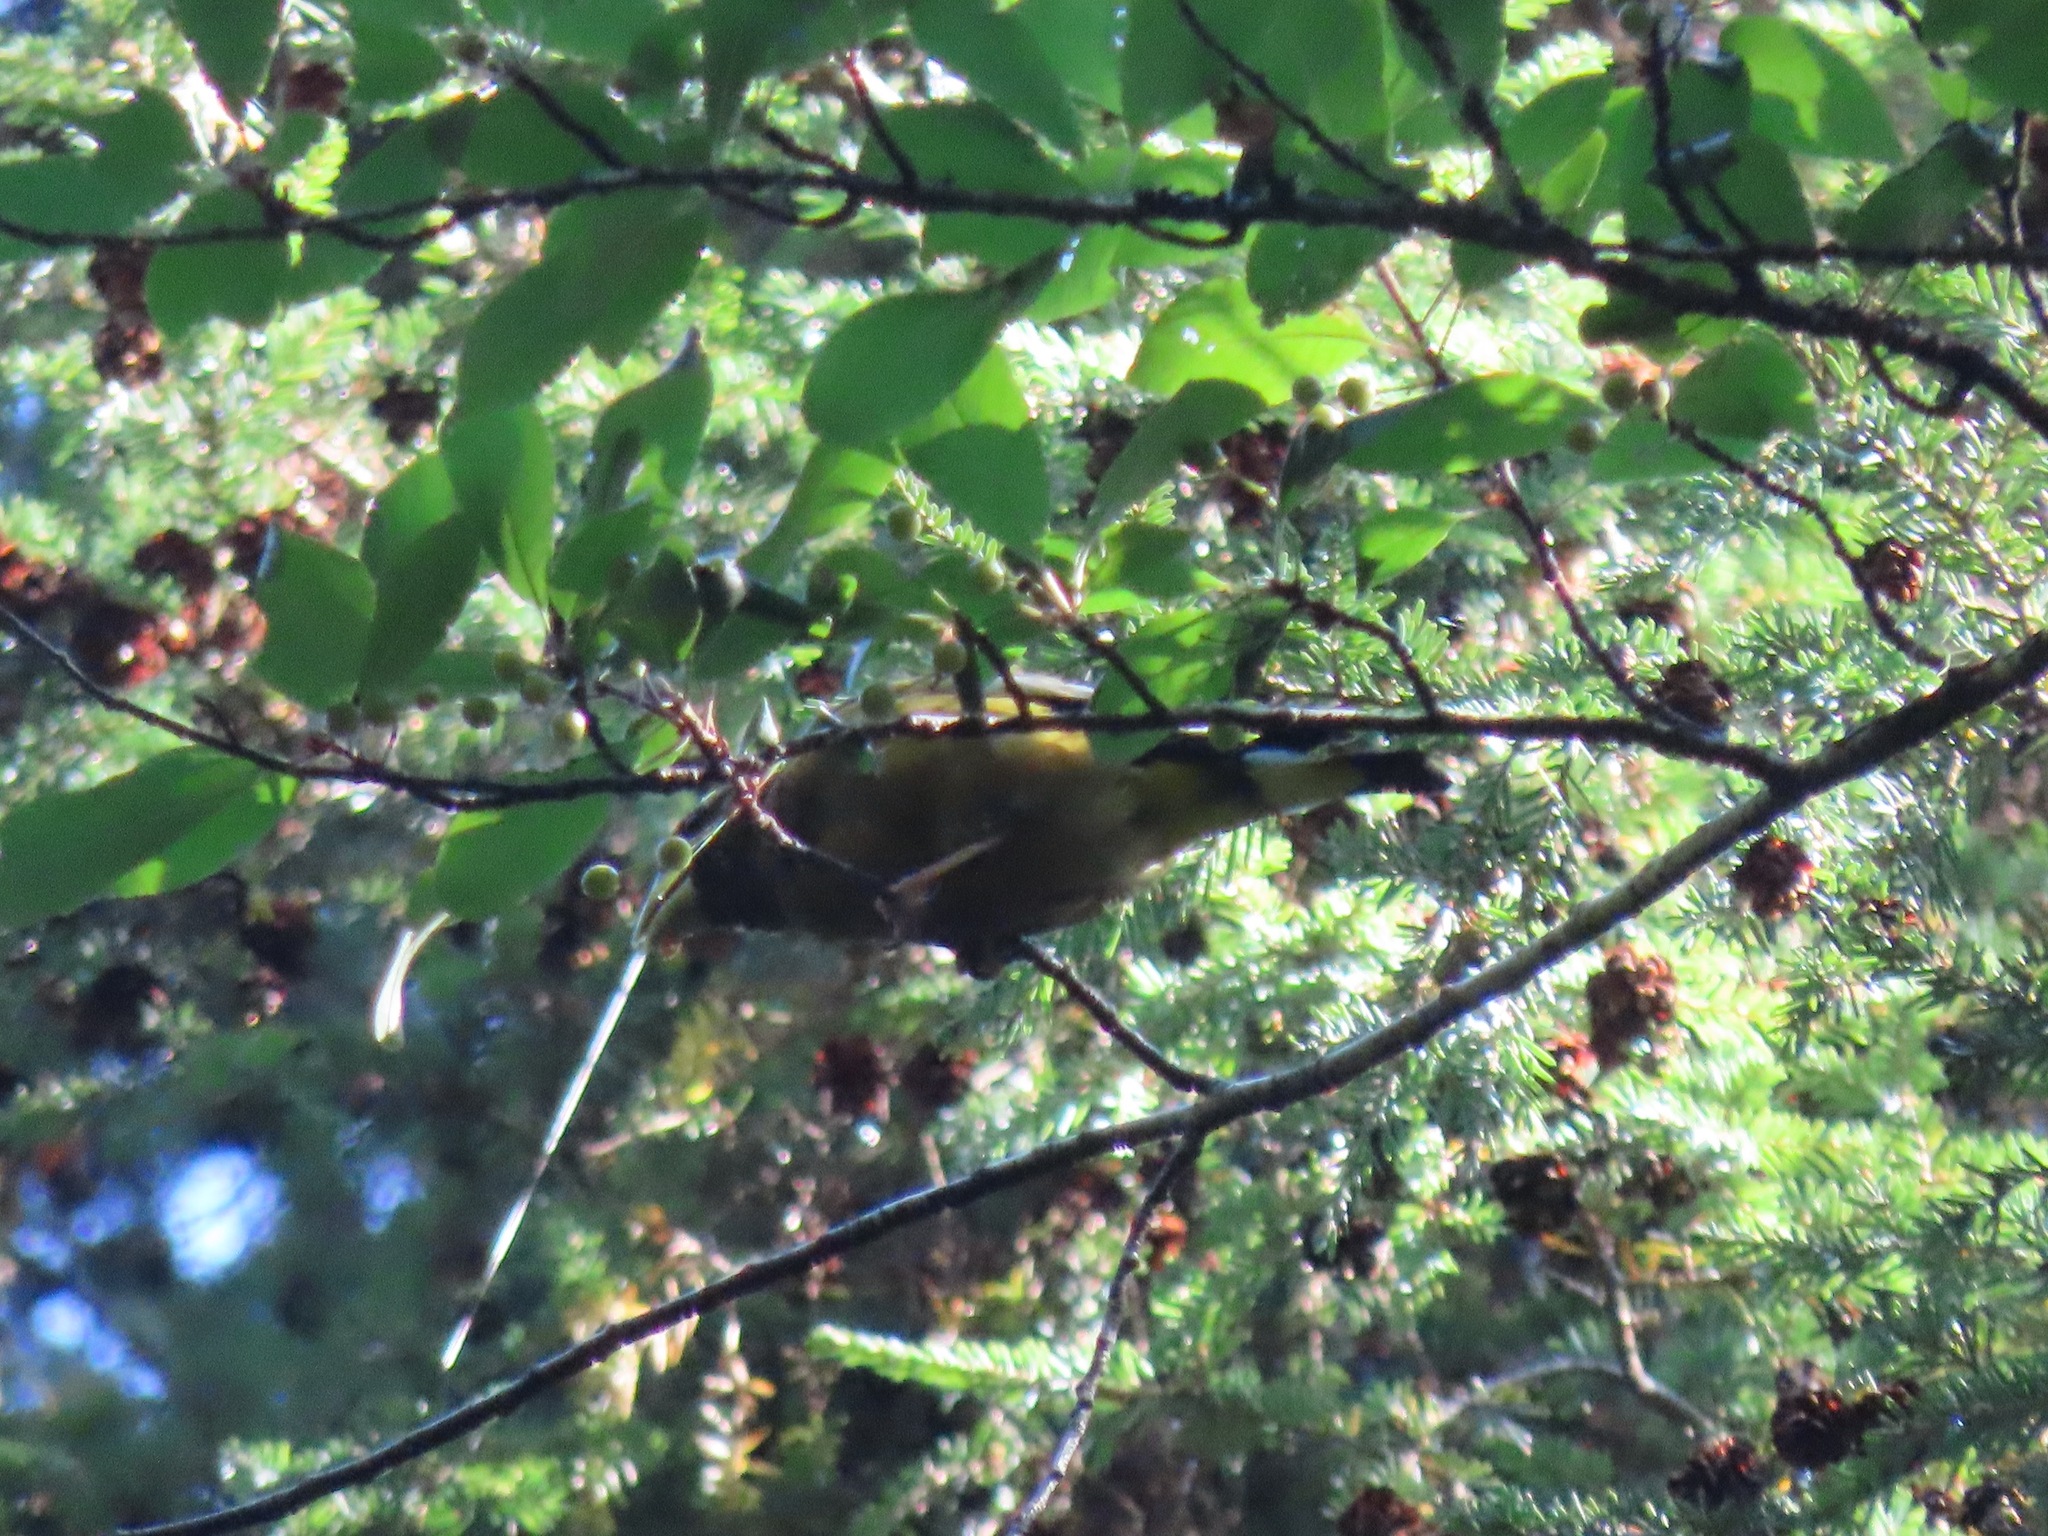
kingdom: Animalia
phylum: Chordata
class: Aves
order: Passeriformes
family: Fringillidae
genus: Hesperiphona
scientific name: Hesperiphona vespertina
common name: Evening grosbeak
